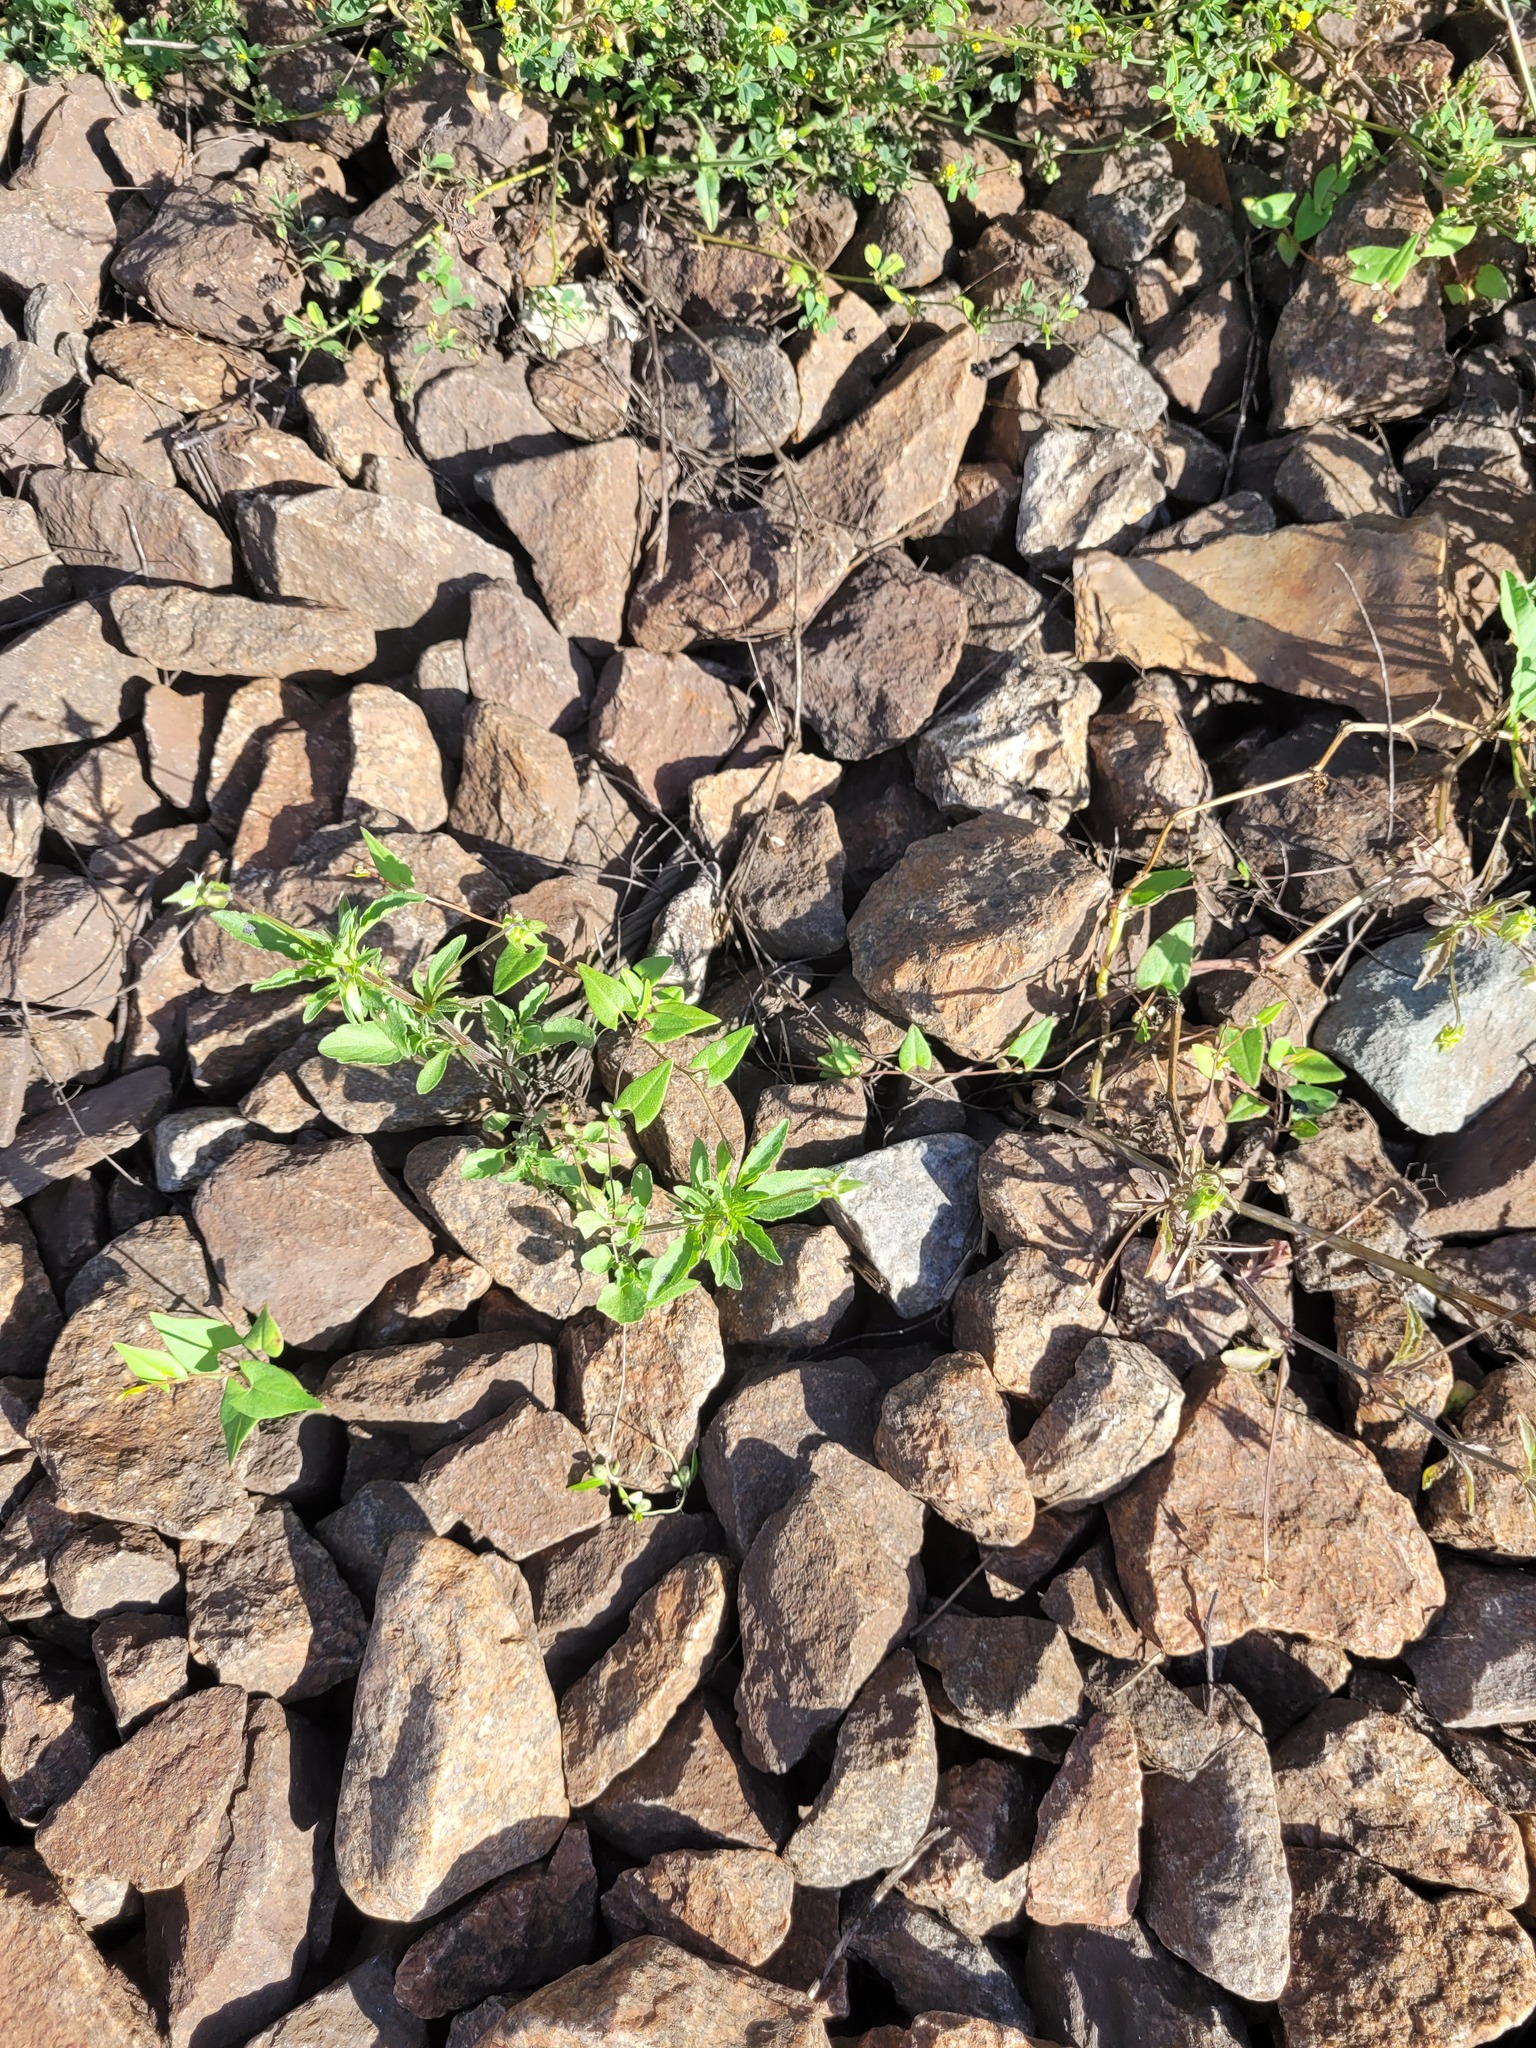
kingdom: Plantae
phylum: Tracheophyta
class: Magnoliopsida
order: Caryophyllales
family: Polygonaceae
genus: Fallopia
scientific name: Fallopia convolvulus
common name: Black bindweed
